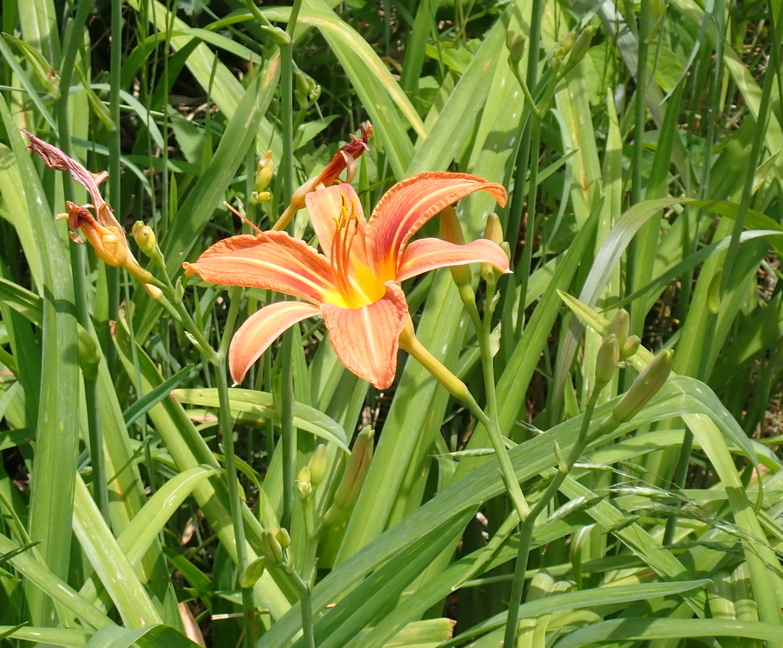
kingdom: Plantae
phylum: Tracheophyta
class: Liliopsida
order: Asparagales
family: Asphodelaceae
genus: Hemerocallis
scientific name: Hemerocallis fulva
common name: Orange day-lily
